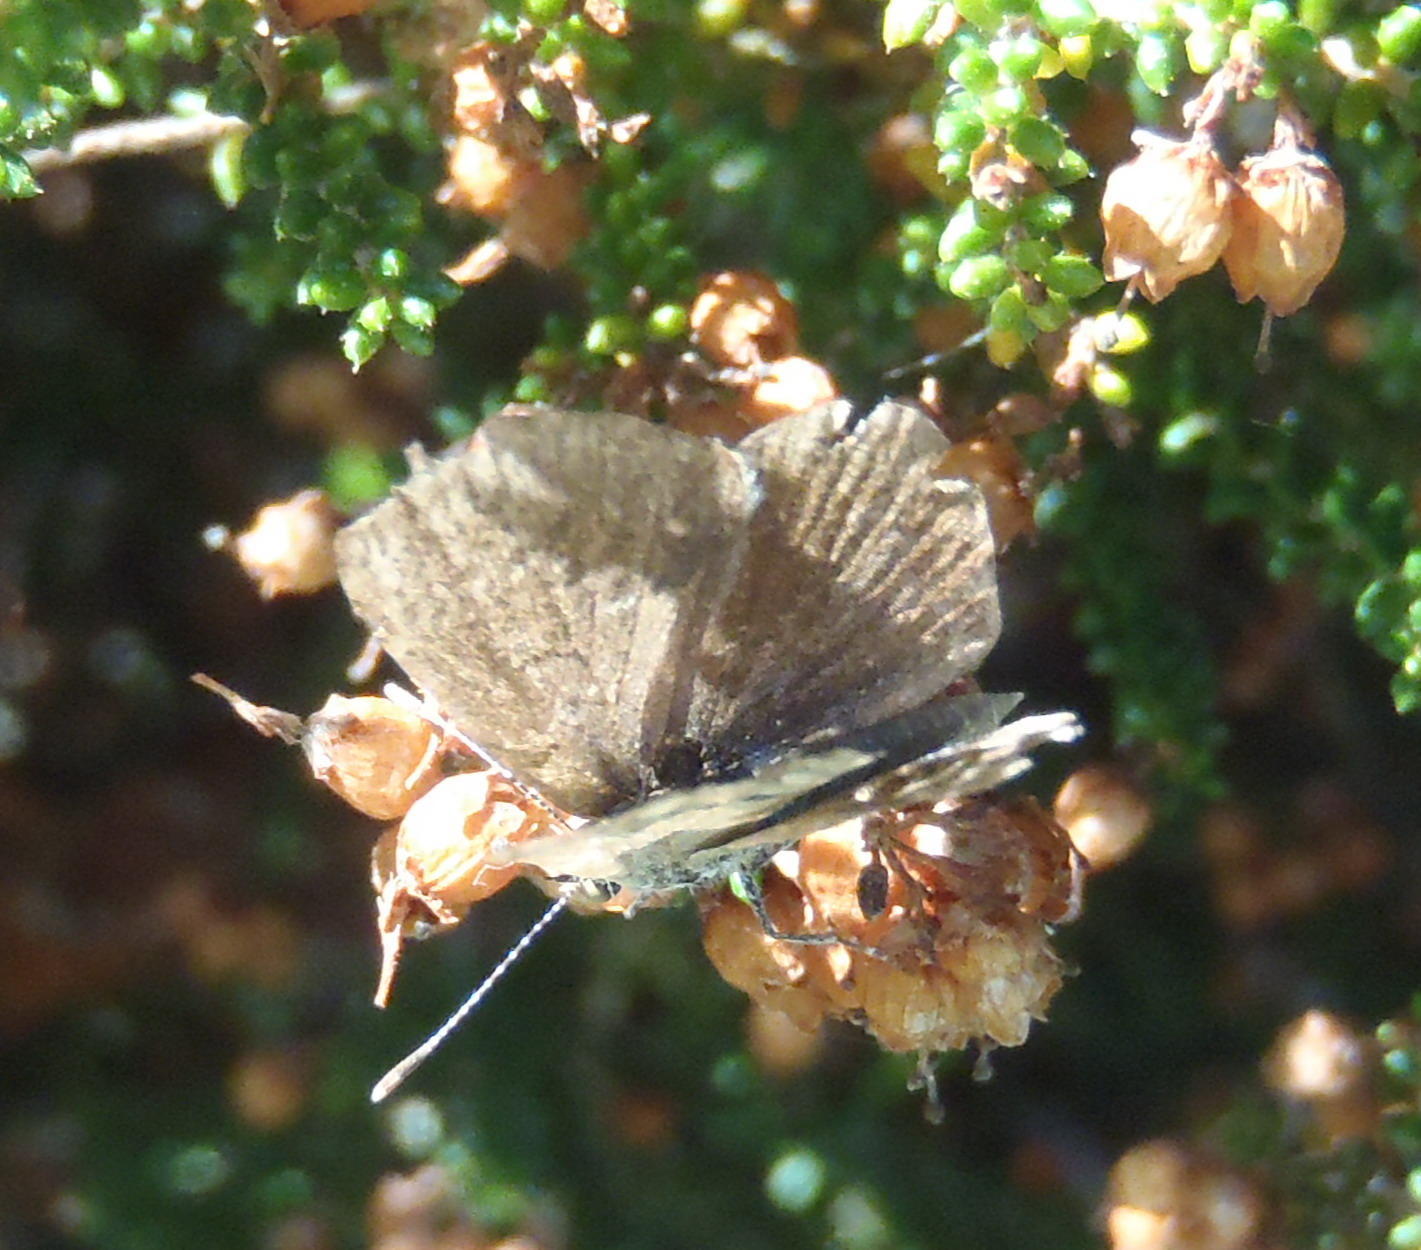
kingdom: Animalia
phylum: Arthropoda
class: Insecta
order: Lepidoptera
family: Lycaenidae
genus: Zizeeria
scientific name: Zizeeria knysna
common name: African grass blue
